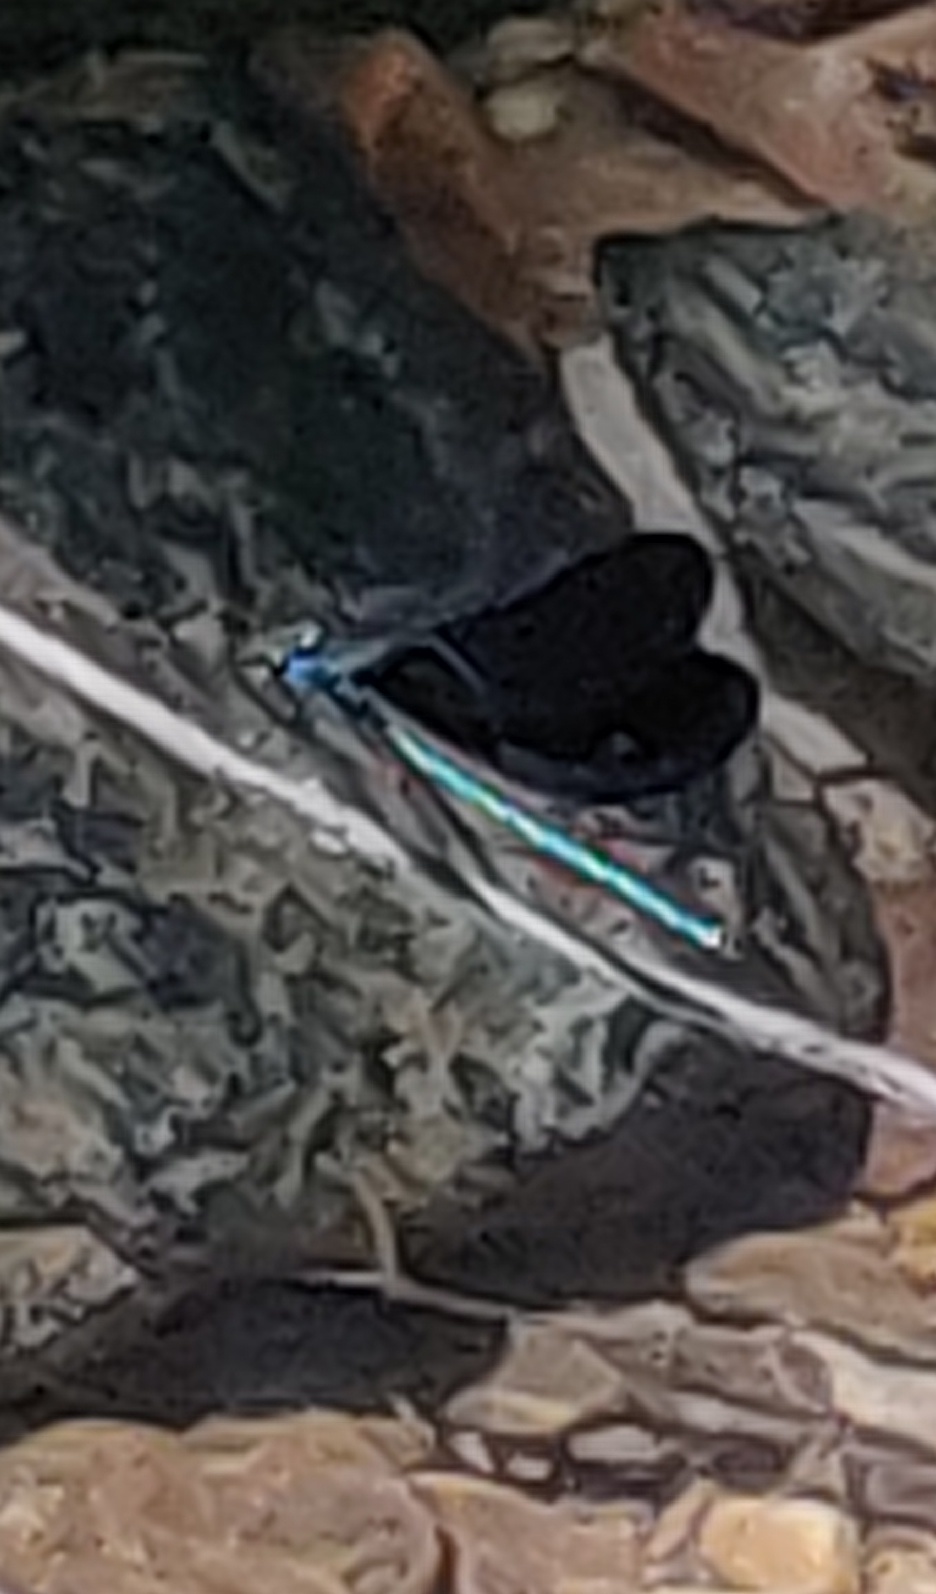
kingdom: Animalia
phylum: Arthropoda
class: Insecta
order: Odonata
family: Calopterygidae
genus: Calopteryx
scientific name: Calopteryx maculata
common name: Ebony jewelwing
